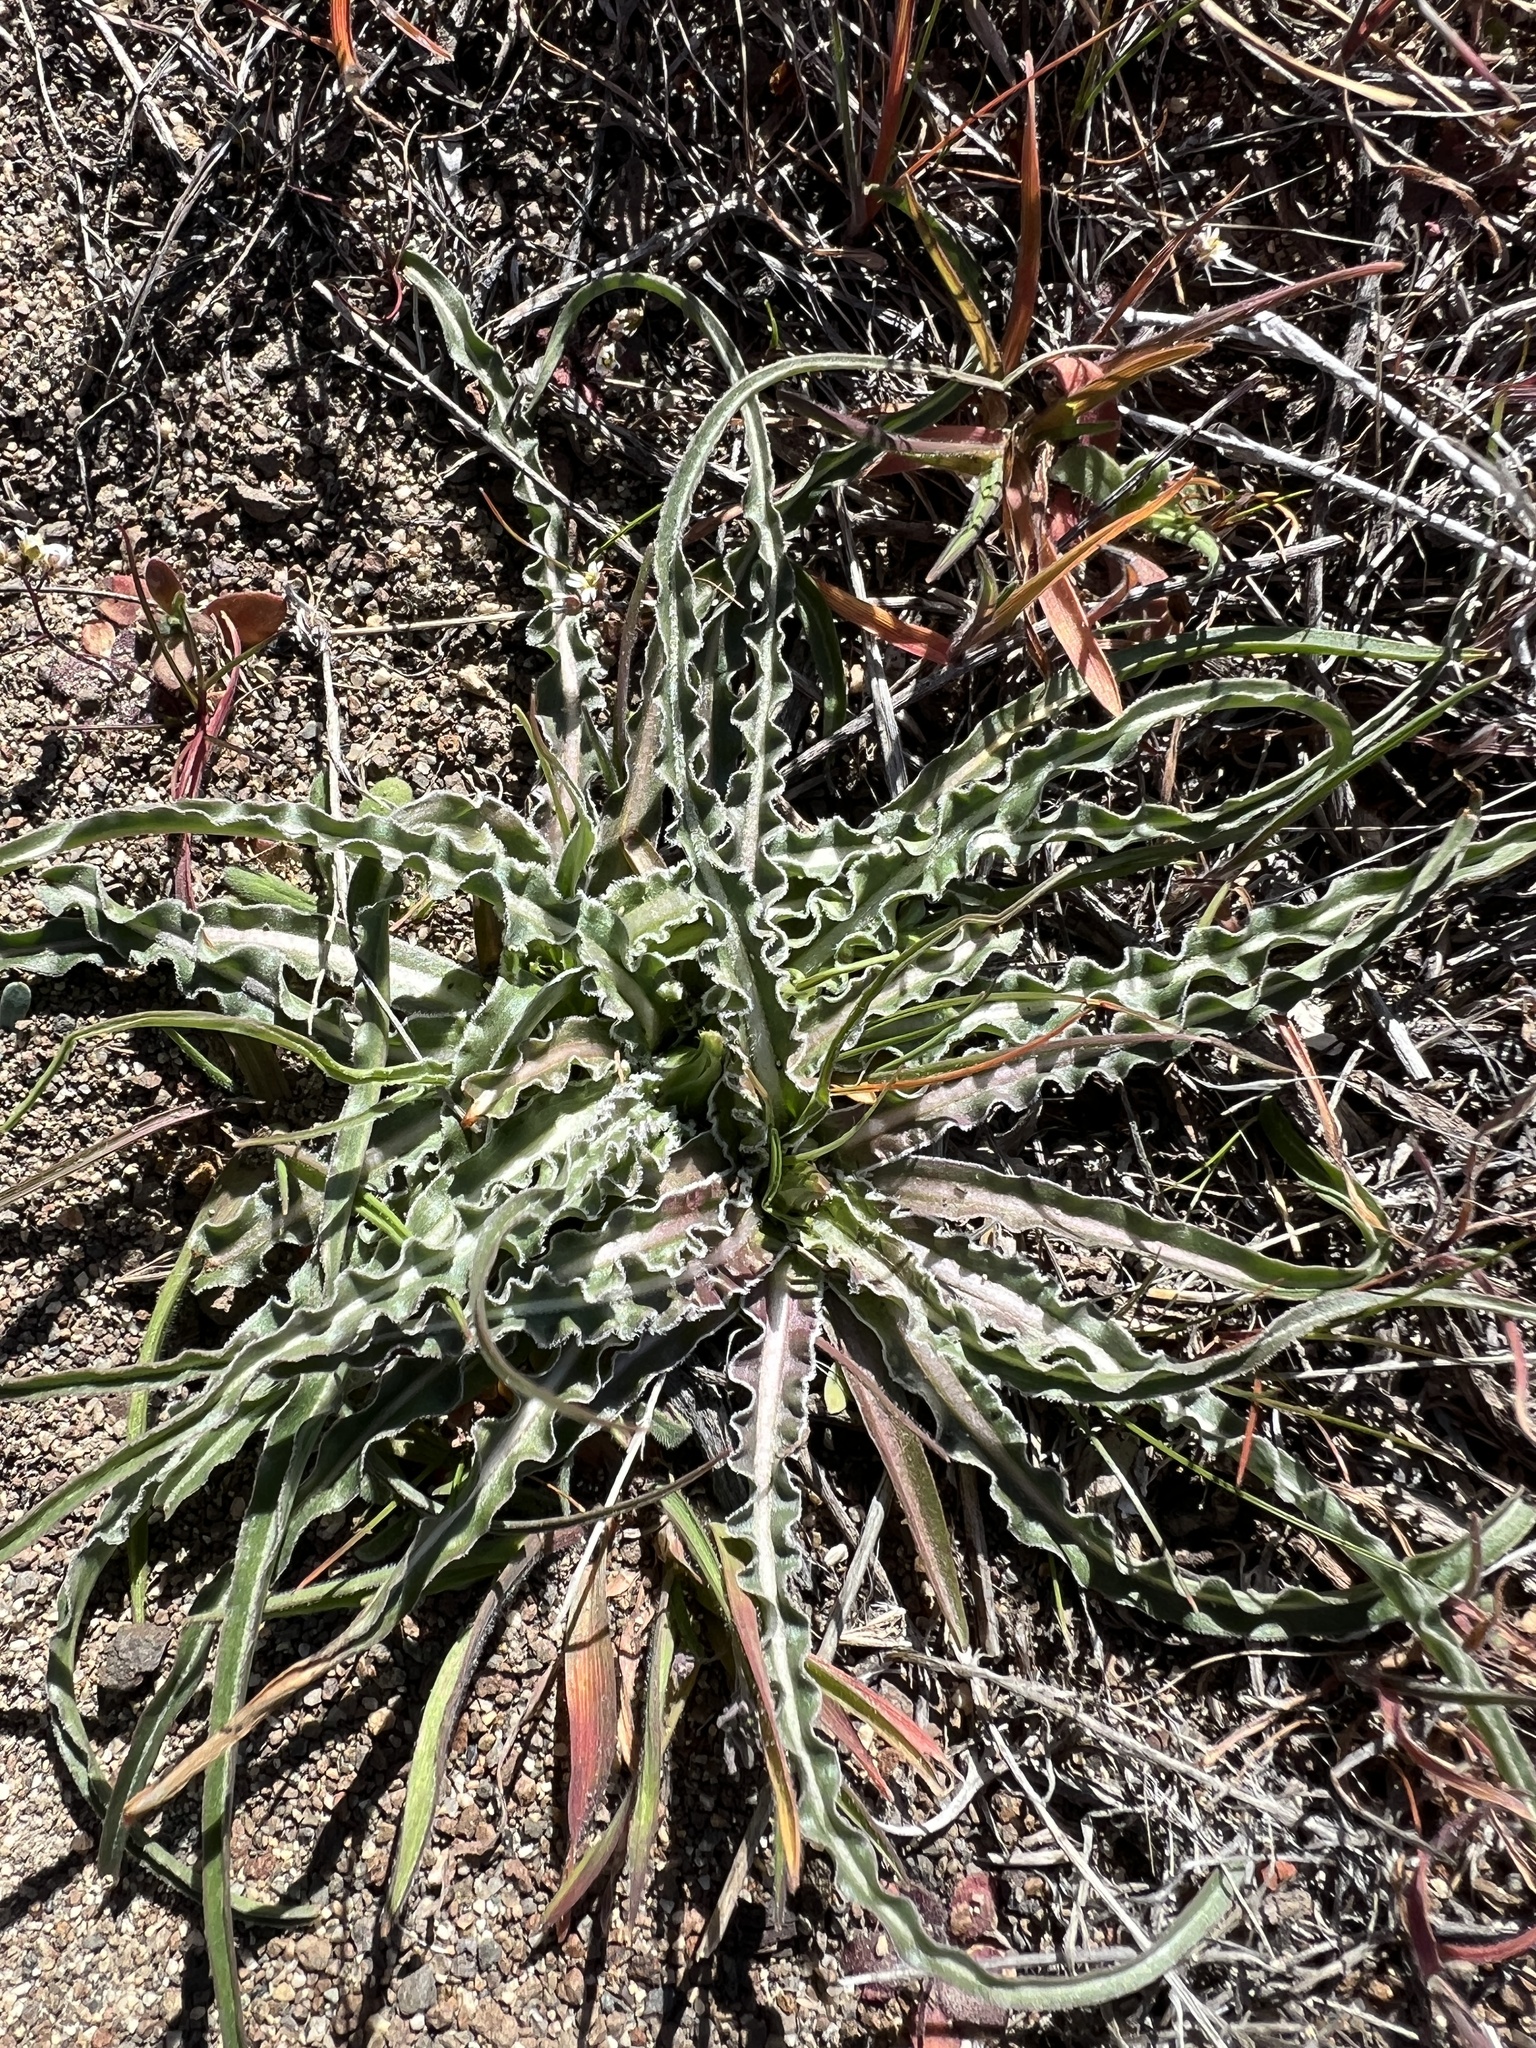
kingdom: Plantae
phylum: Tracheophyta
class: Magnoliopsida
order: Asterales
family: Asteraceae
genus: Microseris
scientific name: Microseris troximoides
